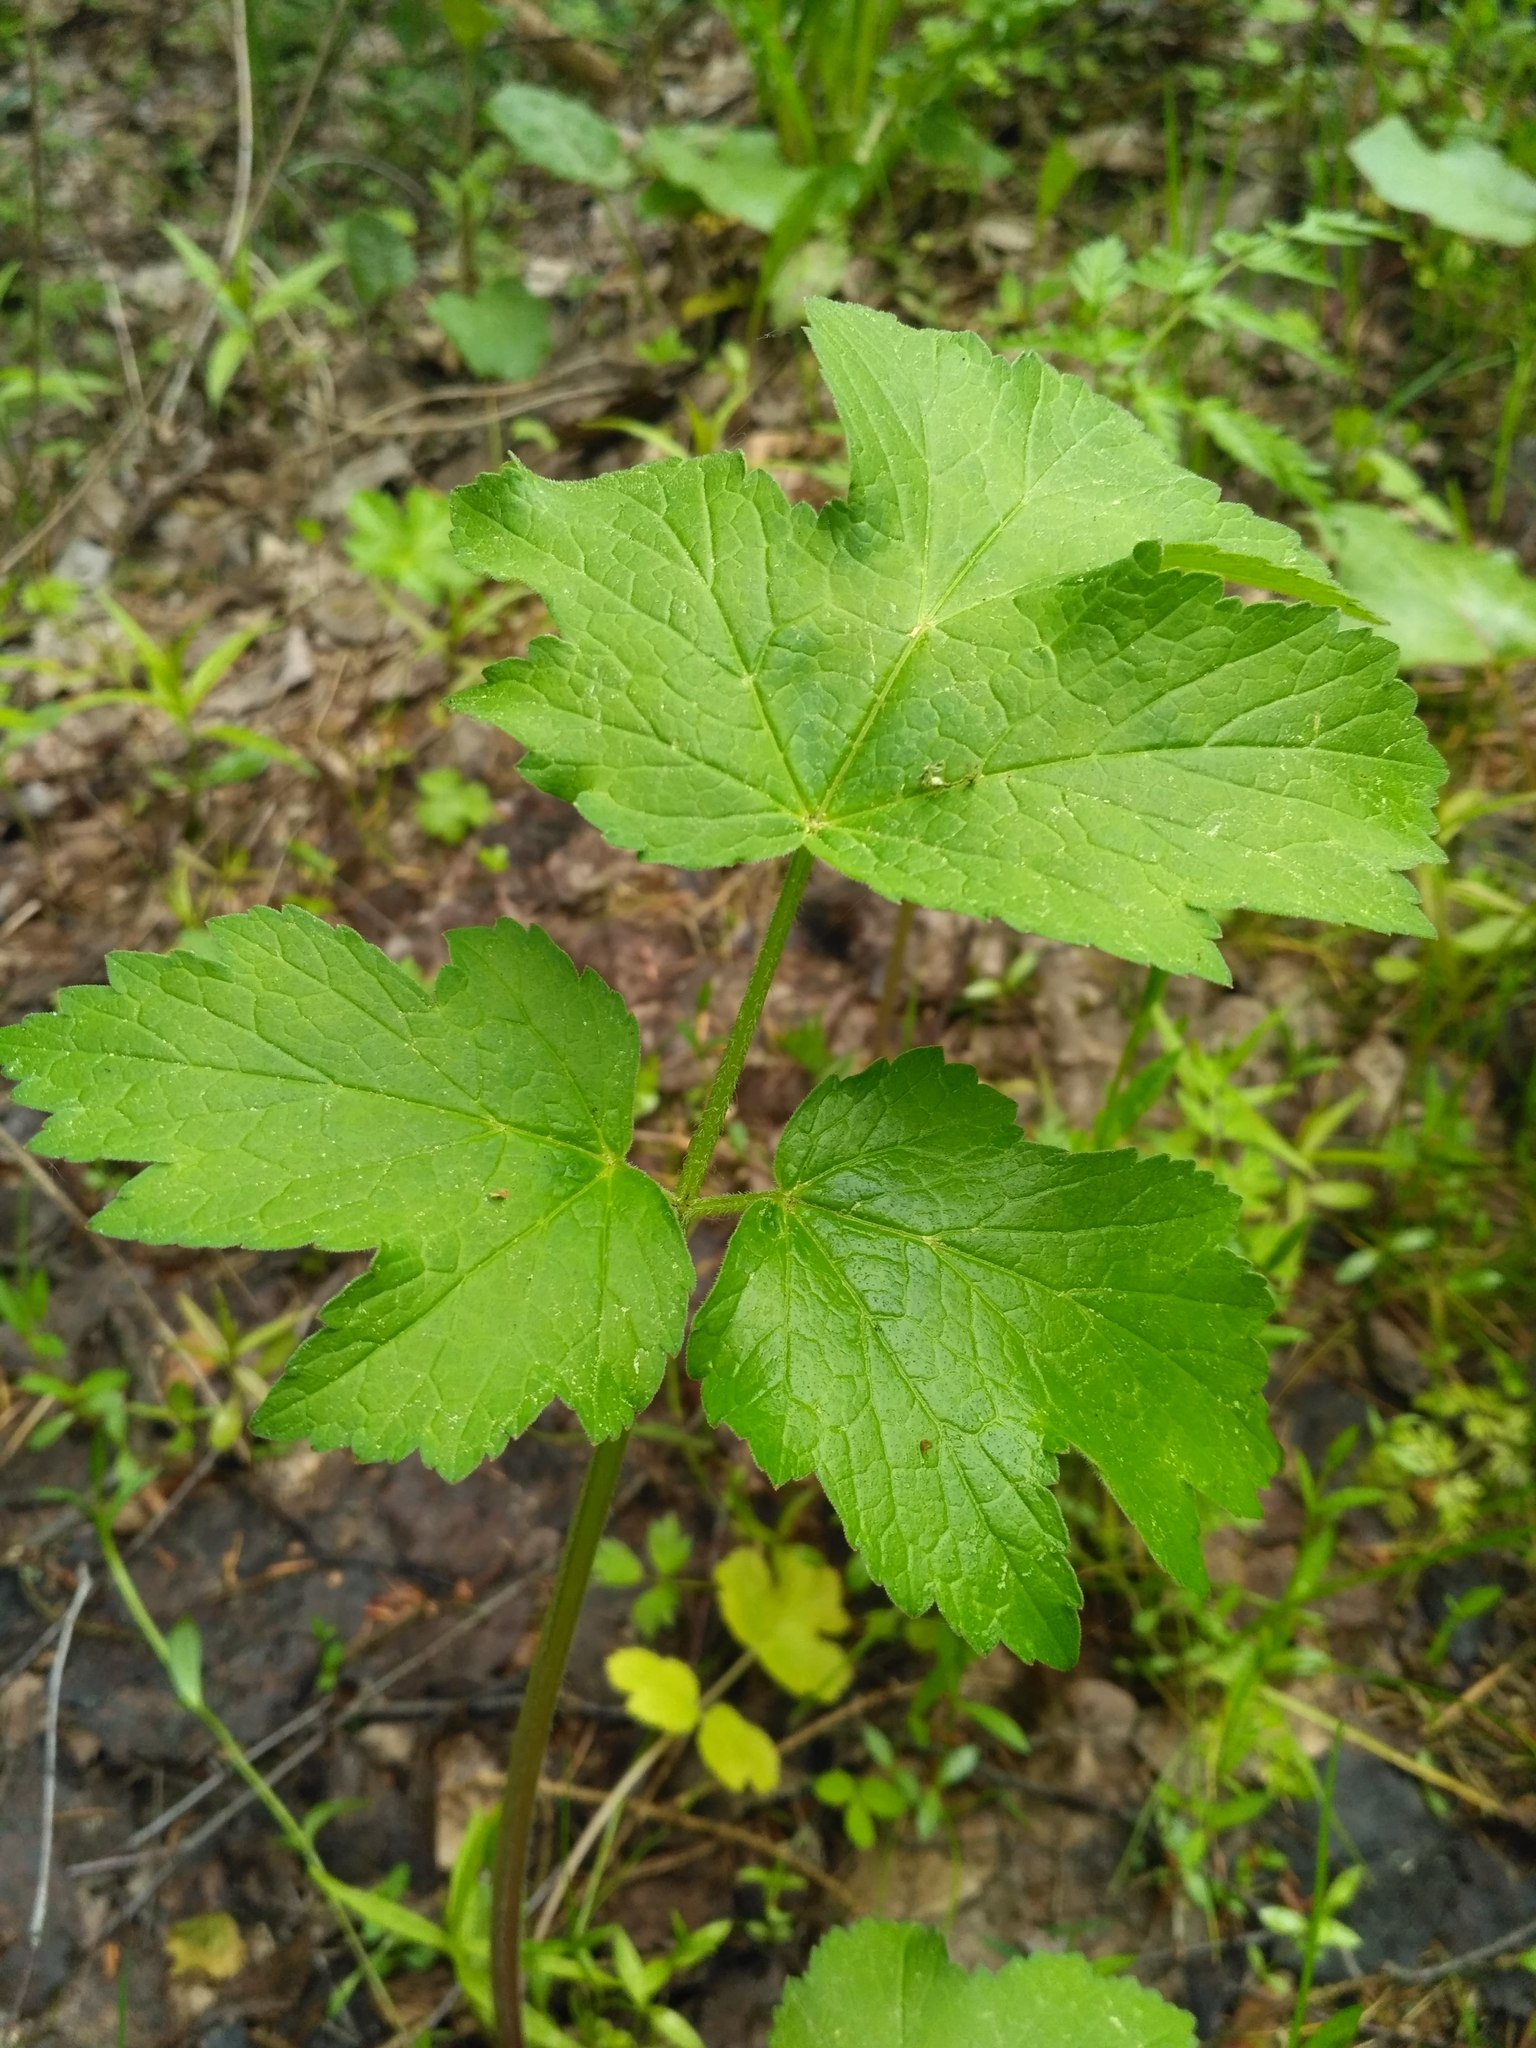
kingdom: Plantae
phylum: Tracheophyta
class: Magnoliopsida
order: Apiales
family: Apiaceae
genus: Heracleum
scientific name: Heracleum sphondylium
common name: Hogweed
